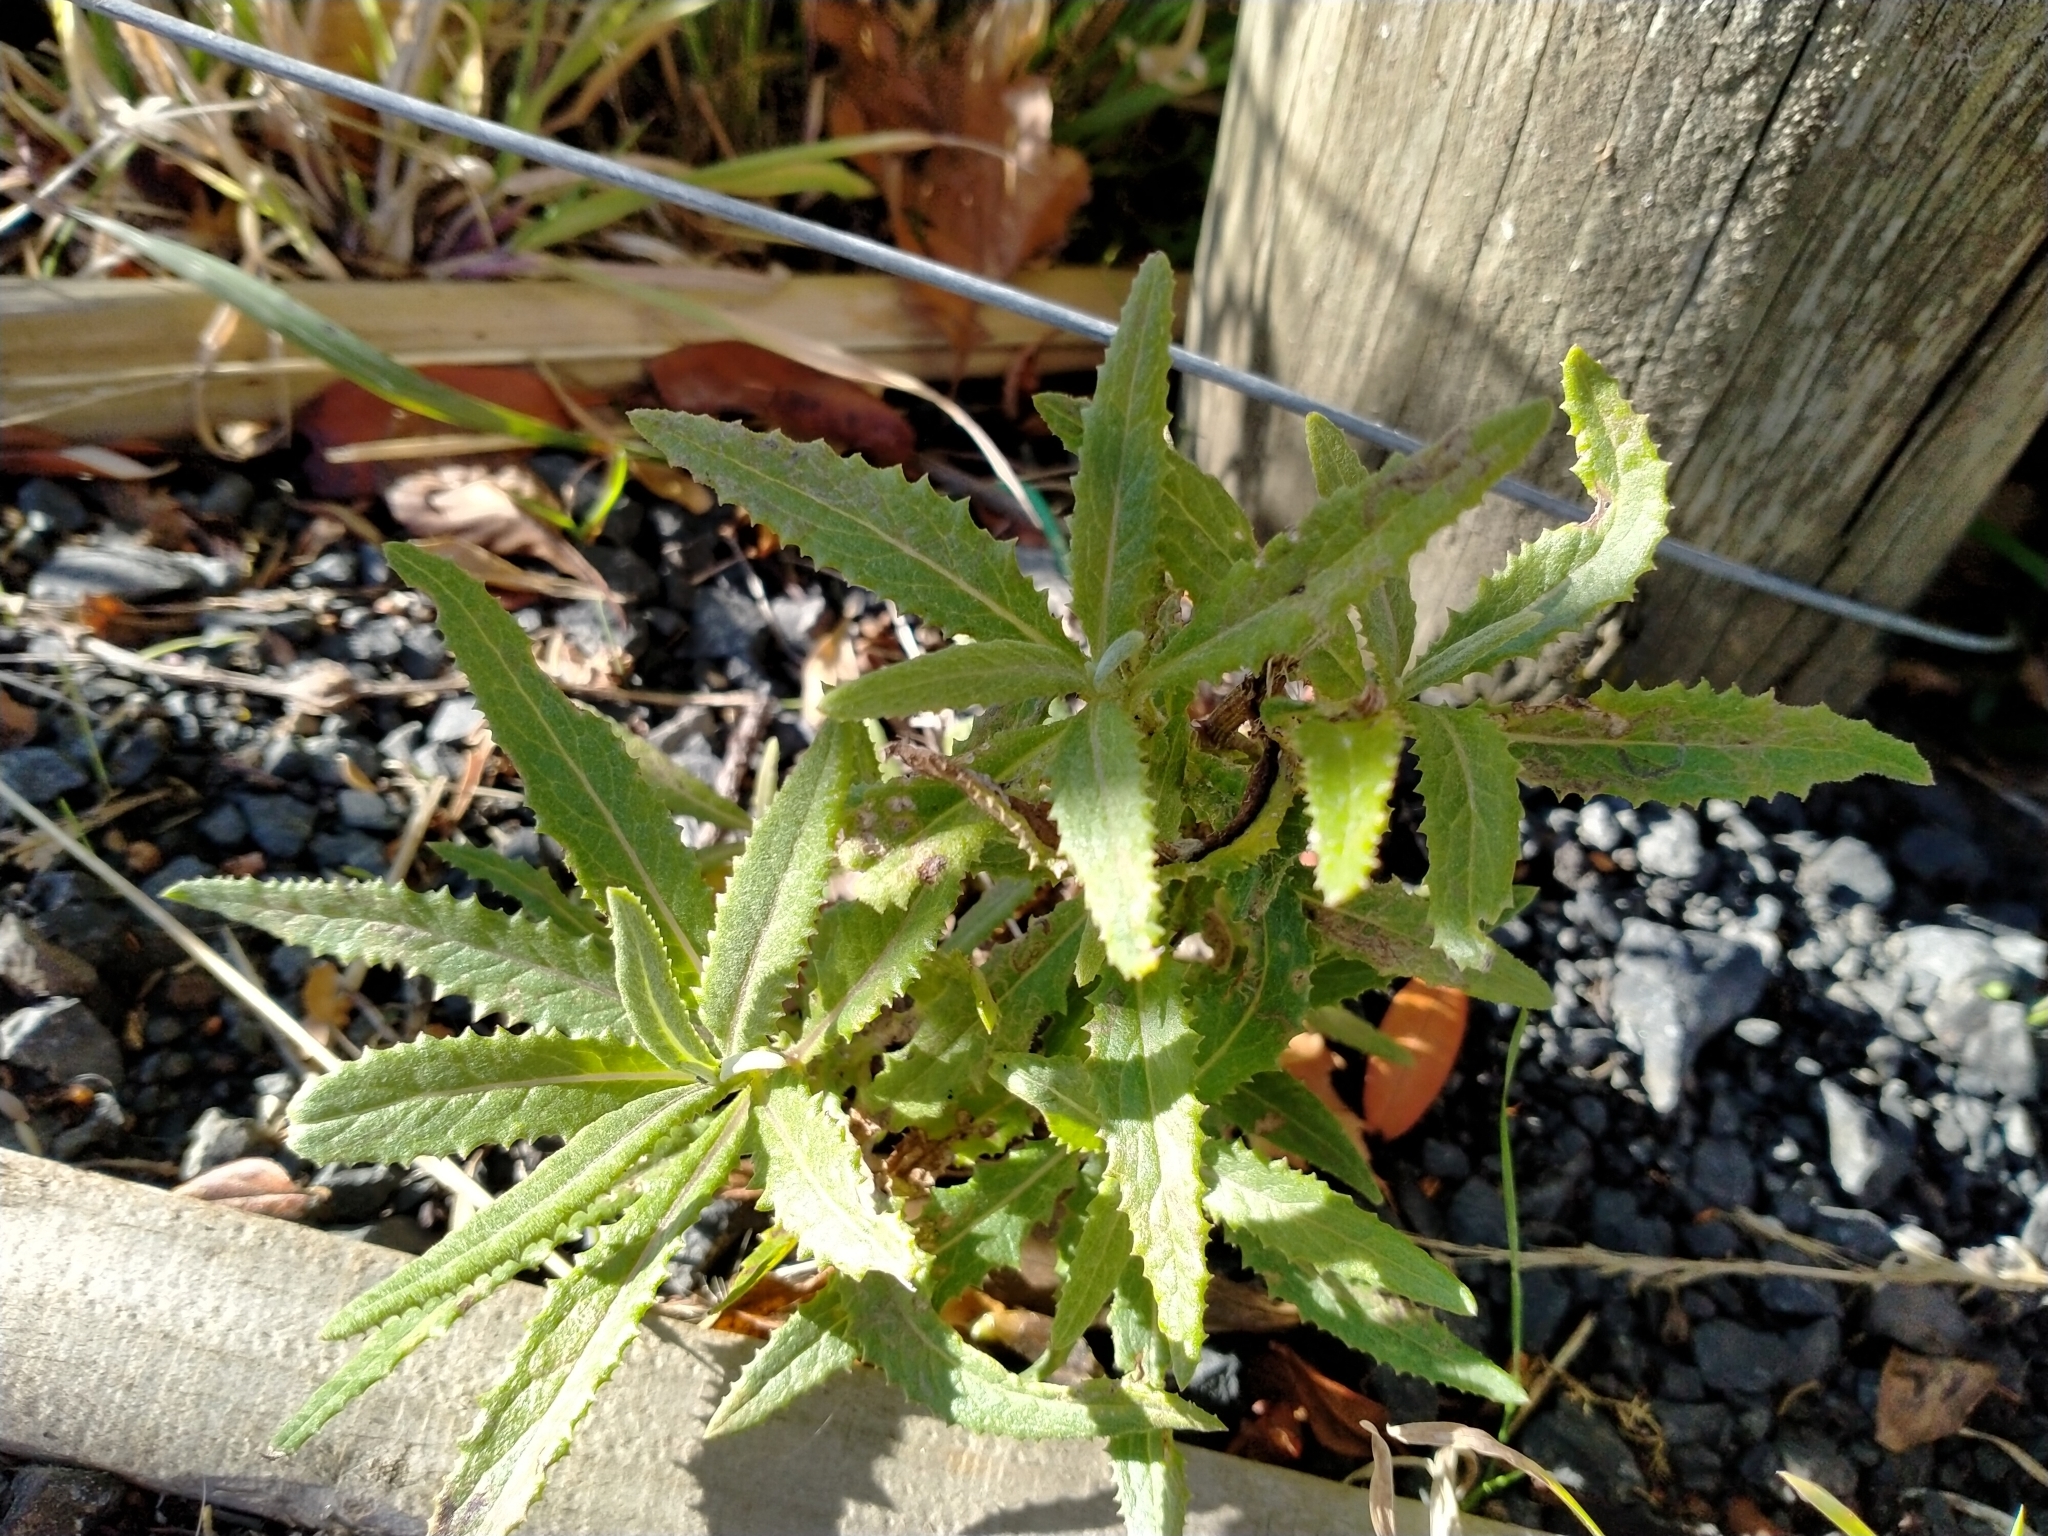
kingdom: Plantae
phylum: Tracheophyta
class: Magnoliopsida
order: Asterales
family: Asteraceae
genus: Senecio
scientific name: Senecio minimus
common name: Toothed fireweed
